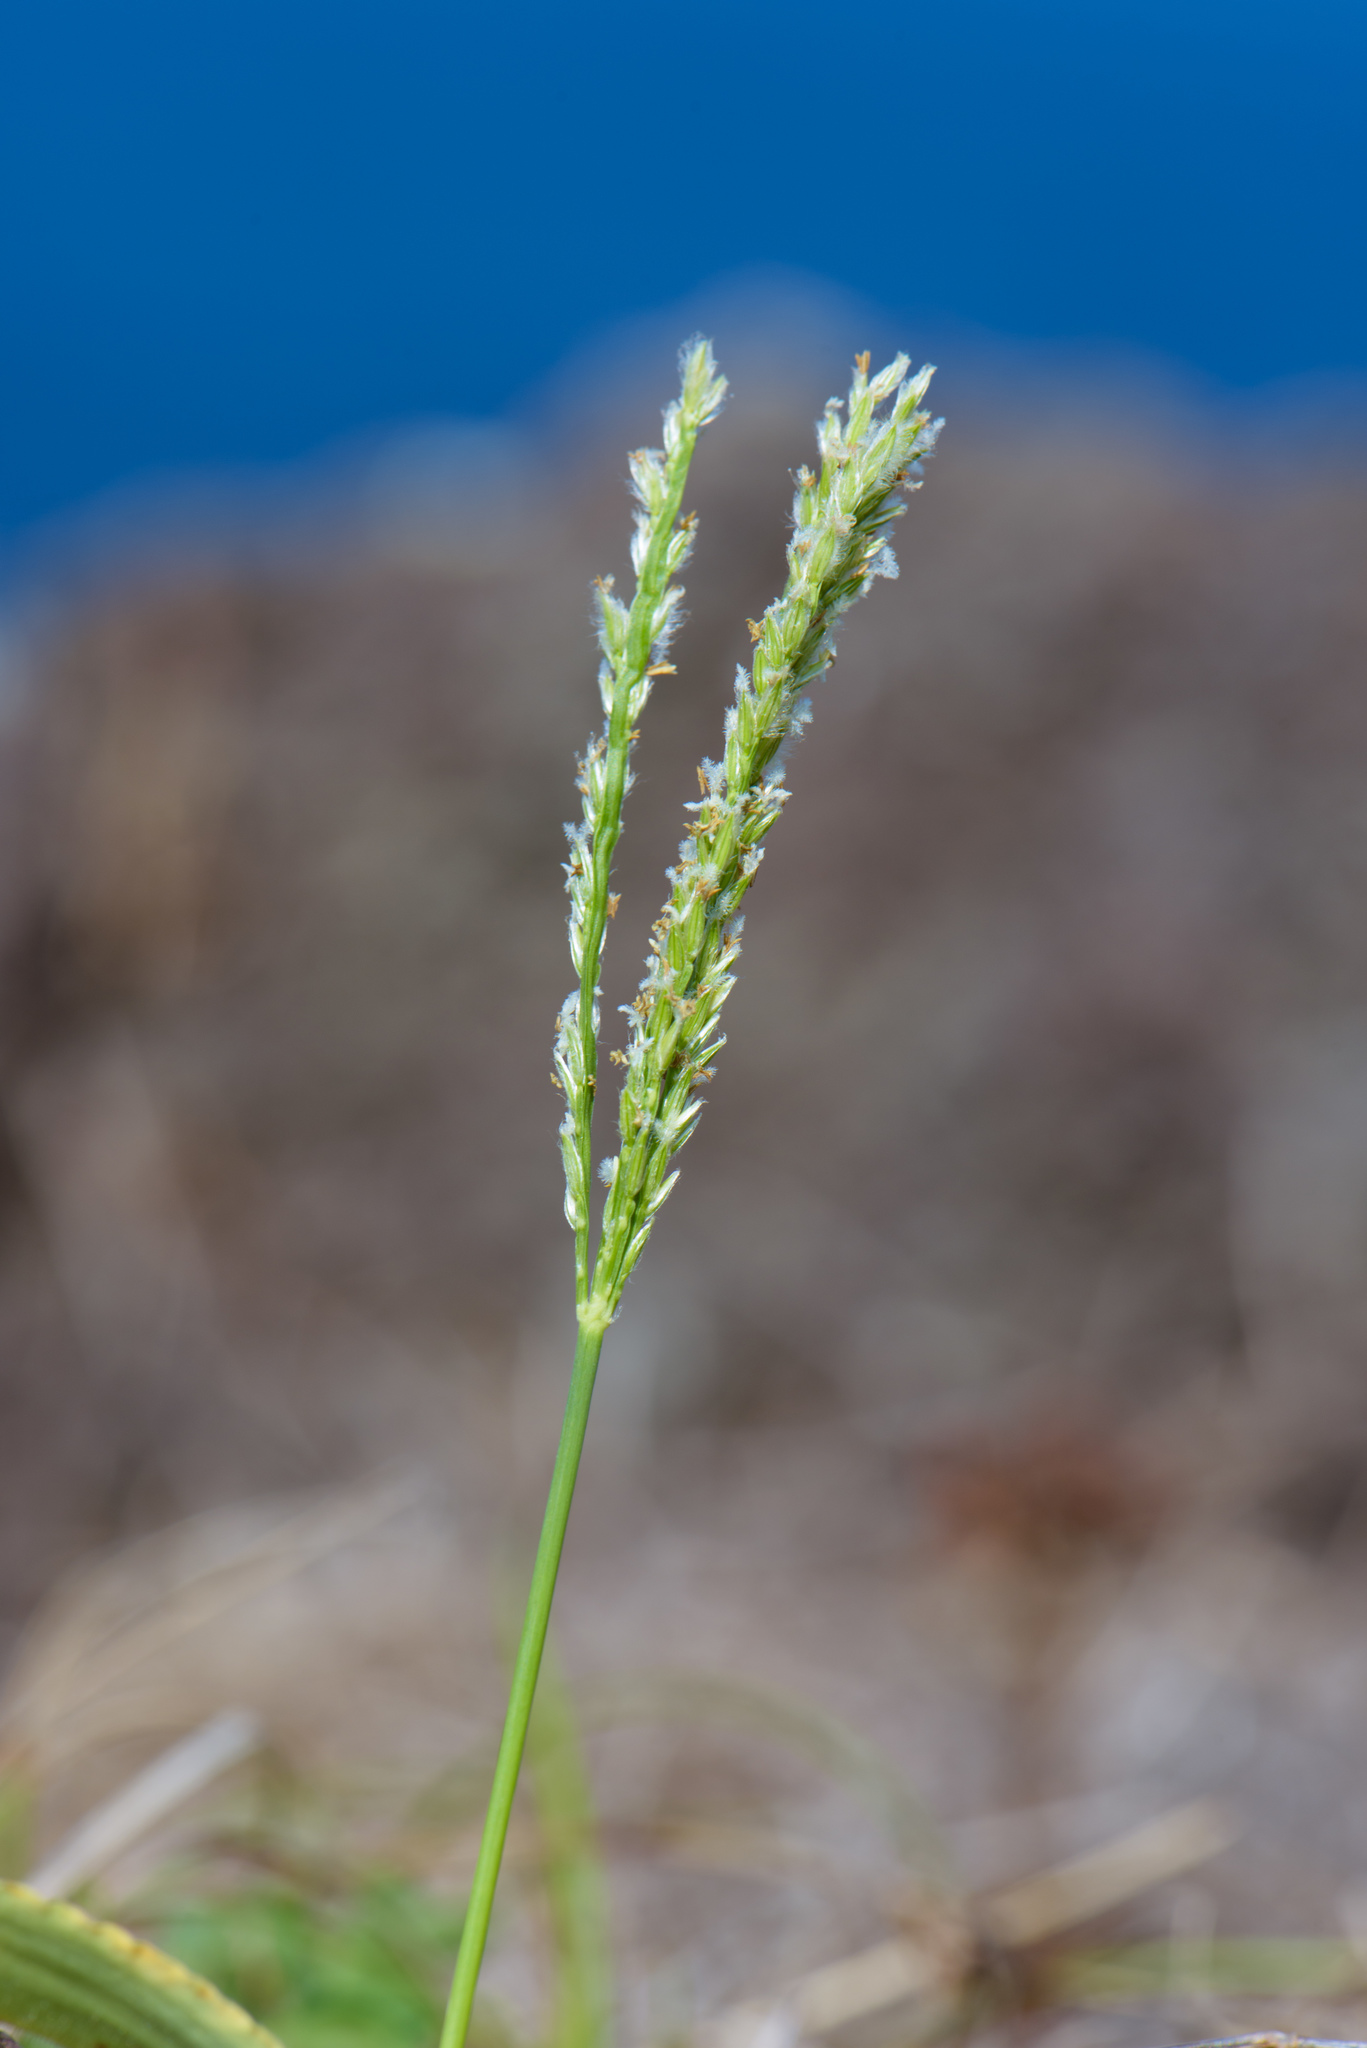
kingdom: Plantae
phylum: Tracheophyta
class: Liliopsida
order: Poales
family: Poaceae
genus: Digitaria
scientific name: Digitaria sericea
